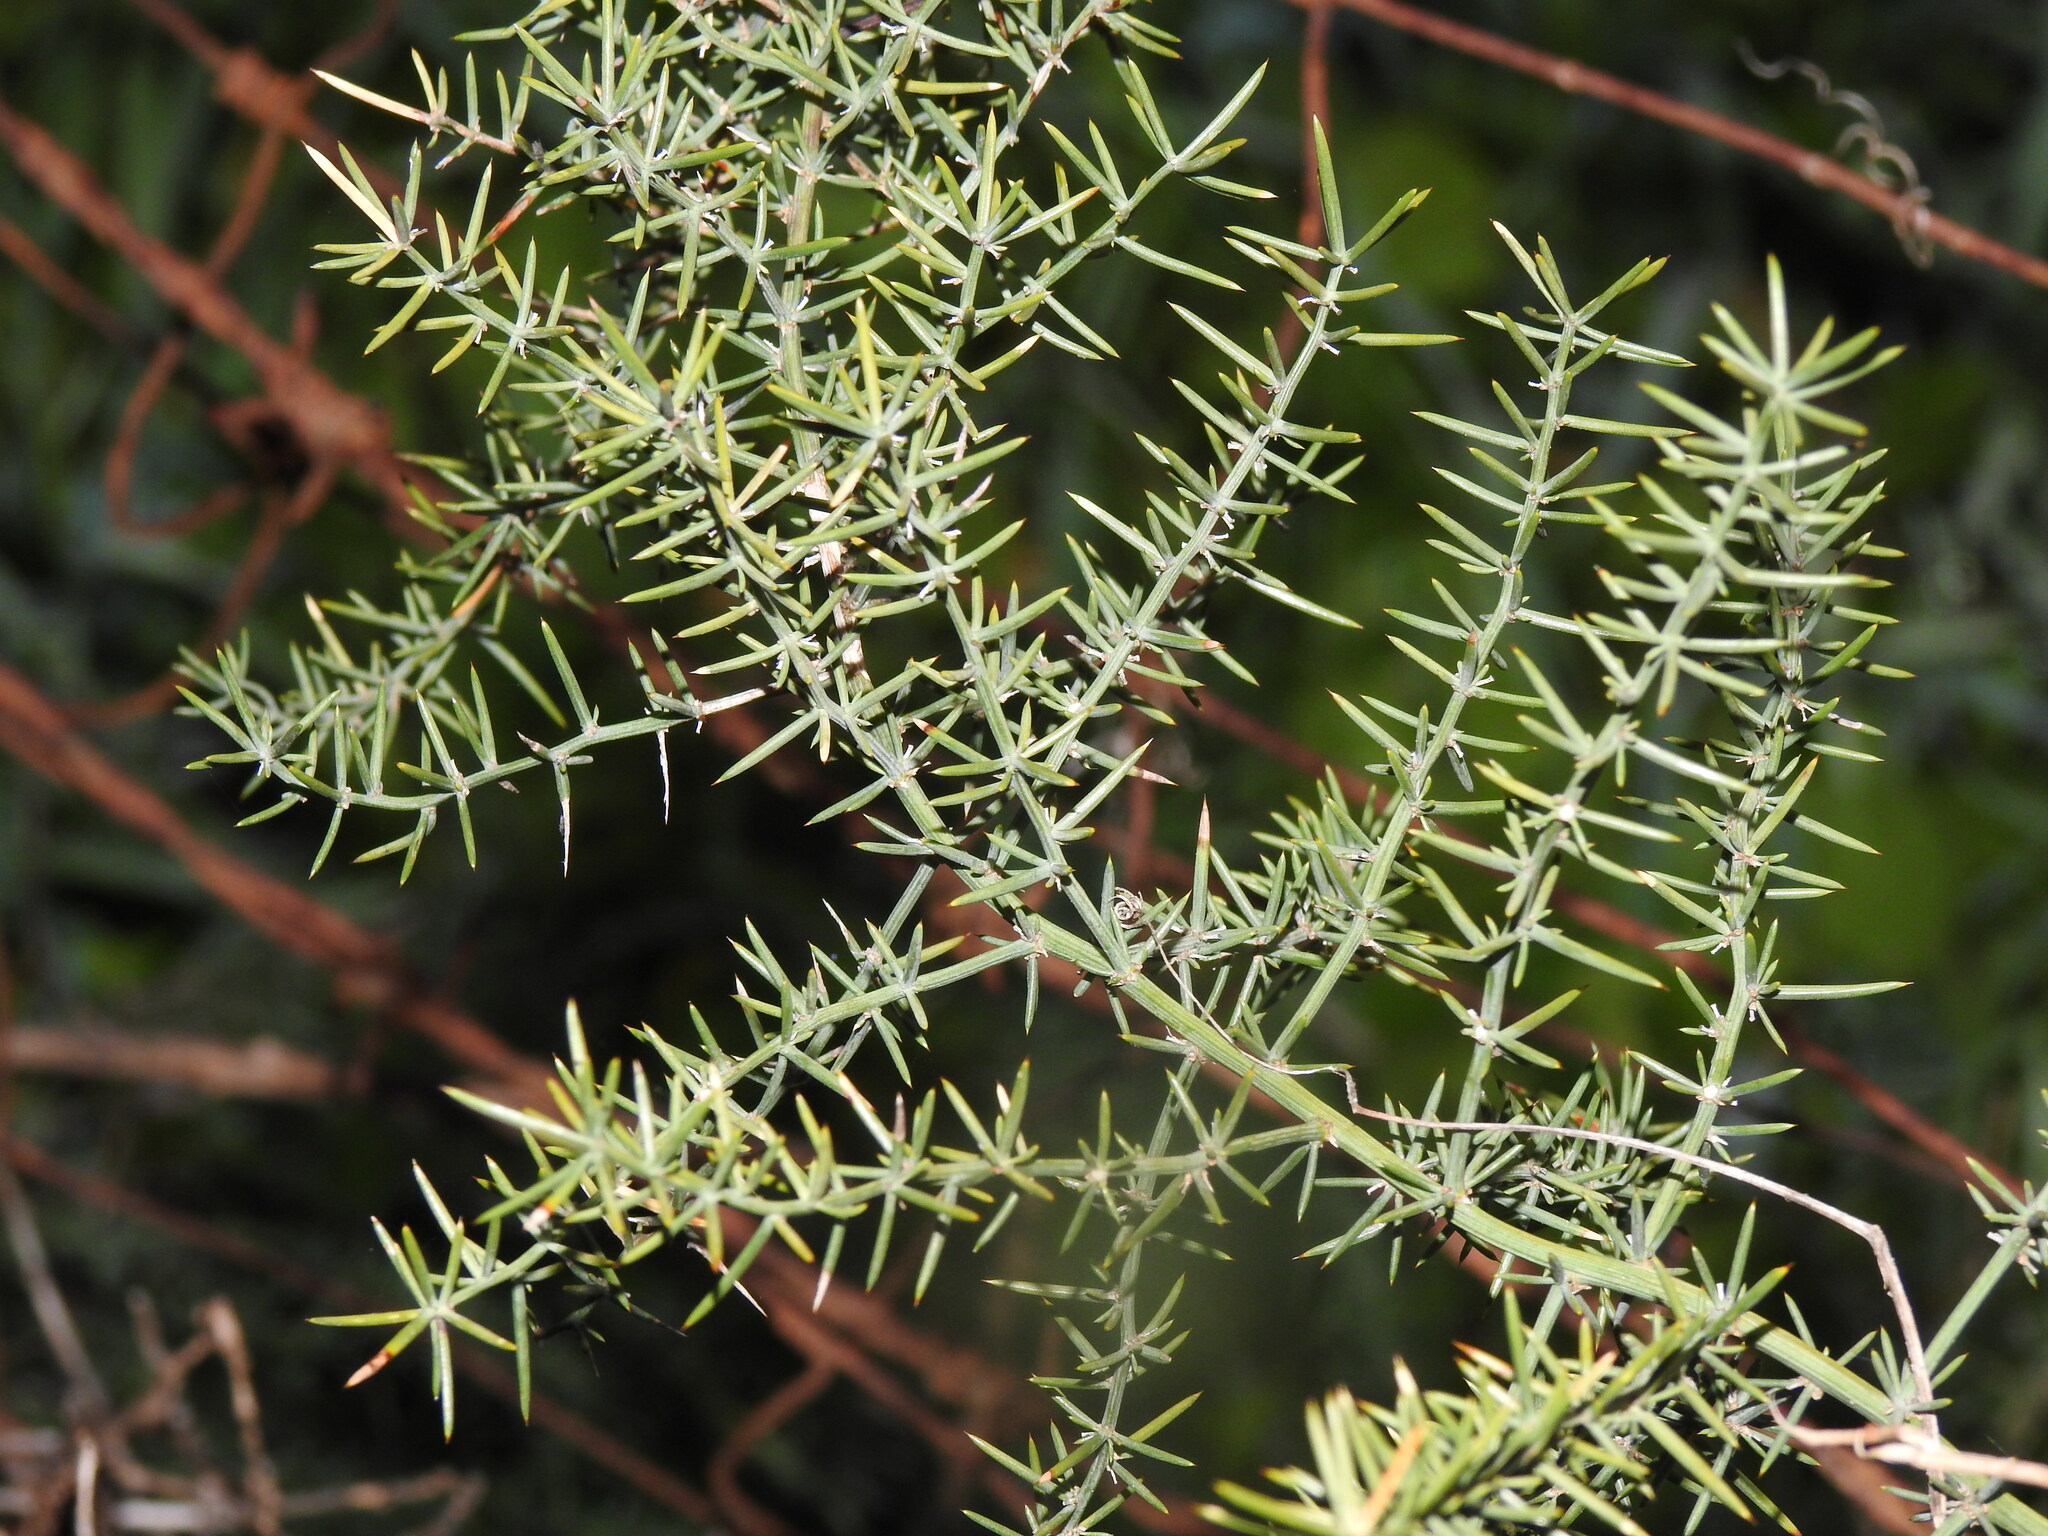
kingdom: Plantae
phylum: Tracheophyta
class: Liliopsida
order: Asparagales
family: Asparagaceae
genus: Asparagus
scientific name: Asparagus aphyllus
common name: Mediterranean asparagus
